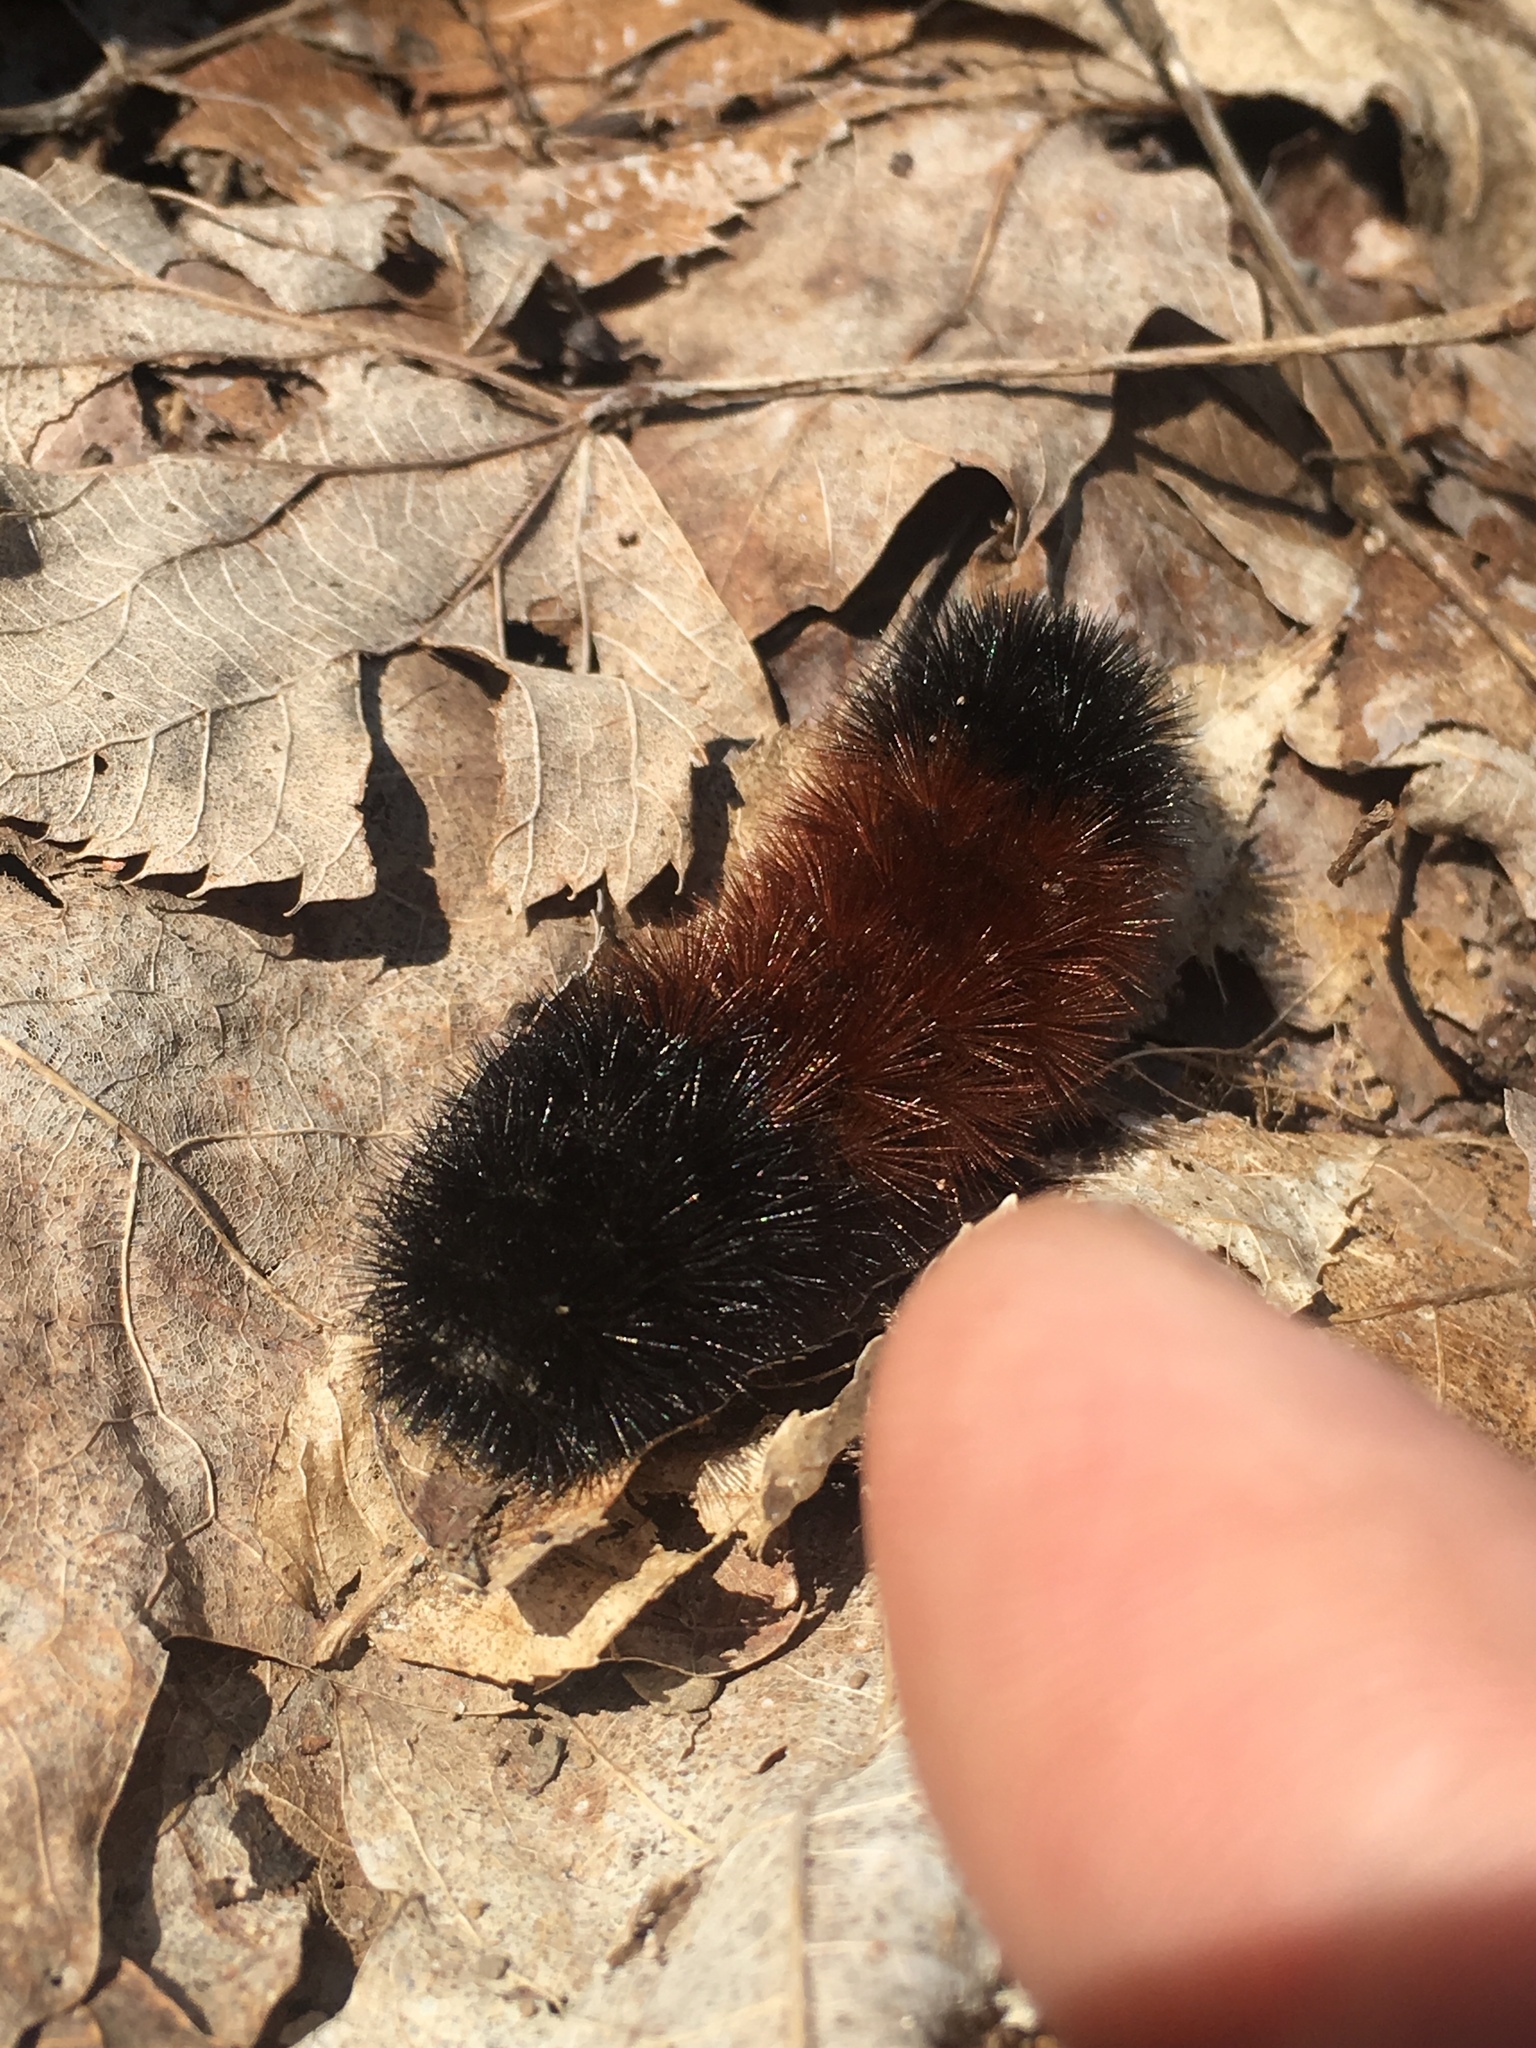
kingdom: Animalia
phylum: Arthropoda
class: Insecta
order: Lepidoptera
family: Erebidae
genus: Pyrrharctia
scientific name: Pyrrharctia isabella
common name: Isabella tiger moth
